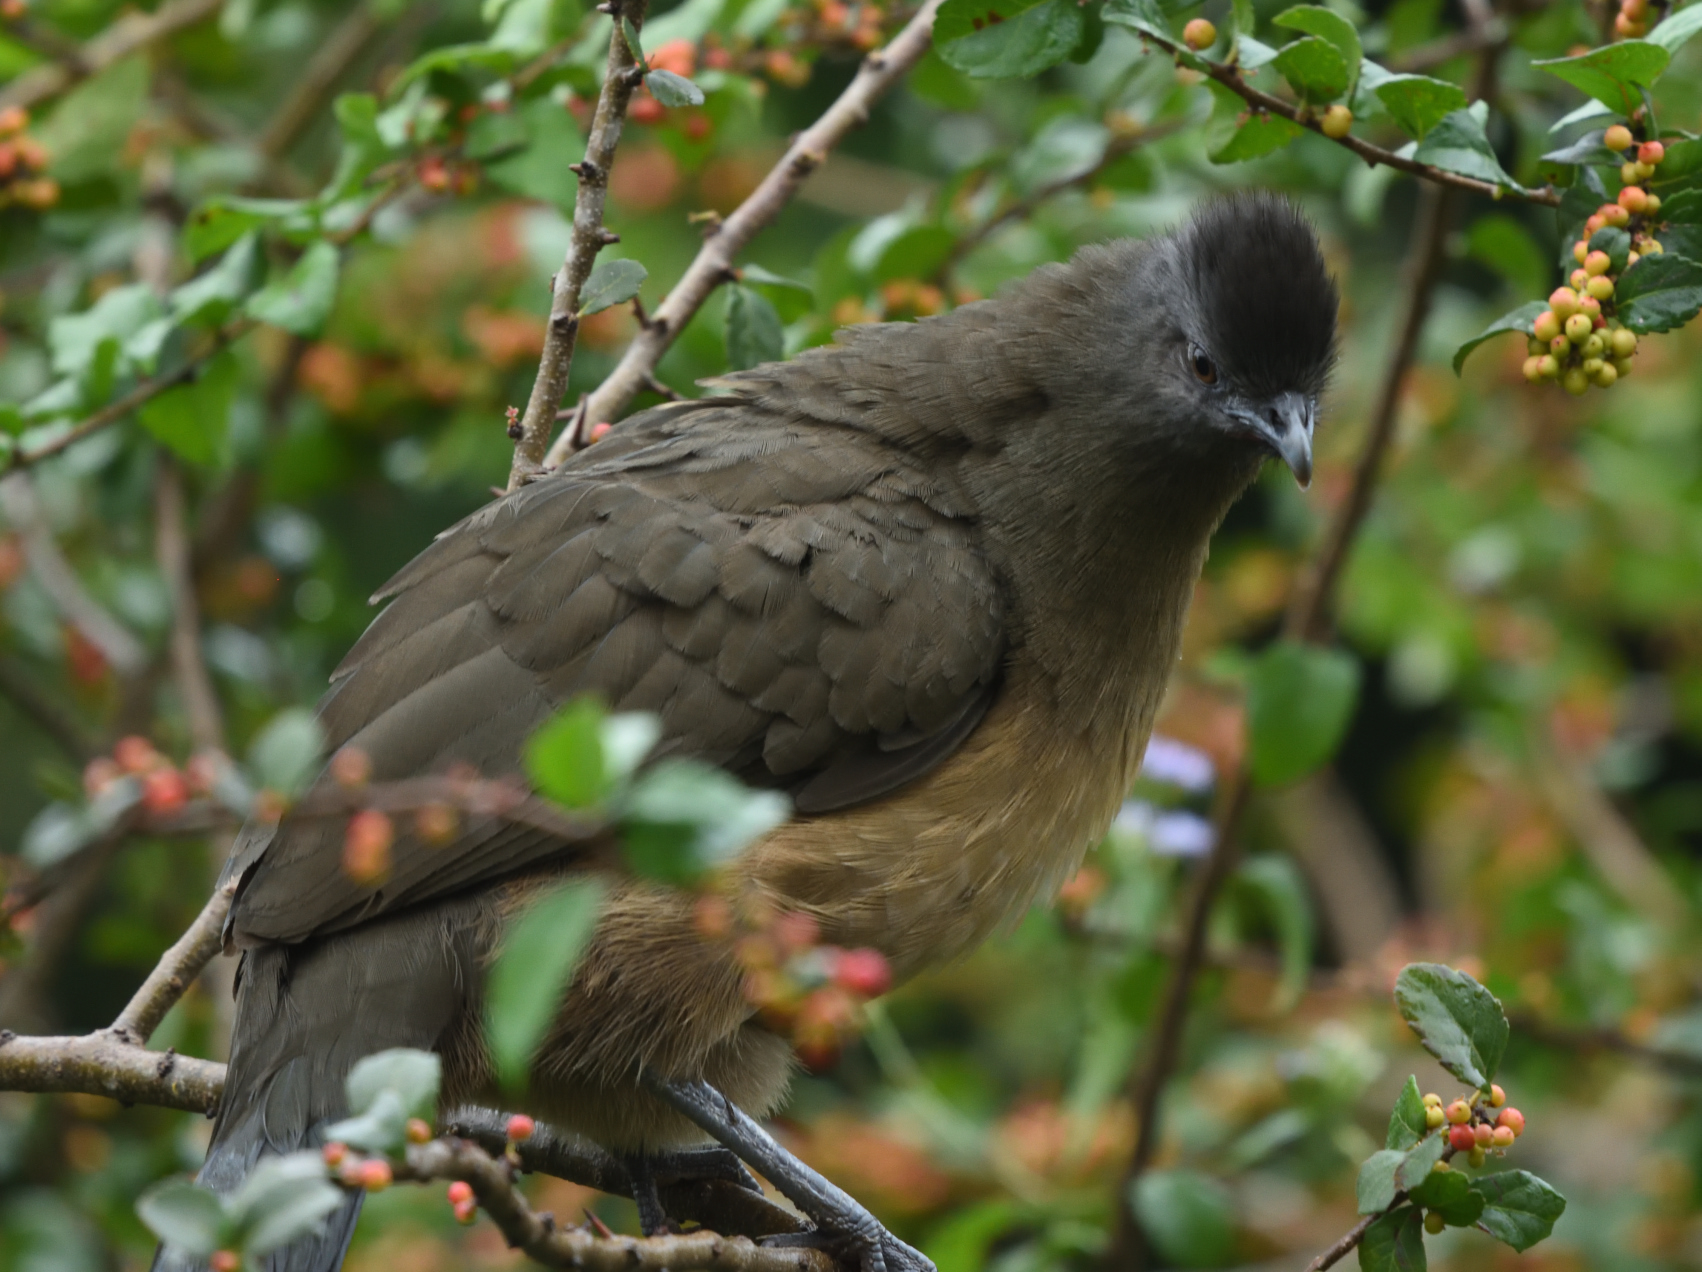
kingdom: Animalia
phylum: Chordata
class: Aves
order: Galliformes
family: Cracidae
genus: Ortalis
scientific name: Ortalis vetula
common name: Plain chachalaca
